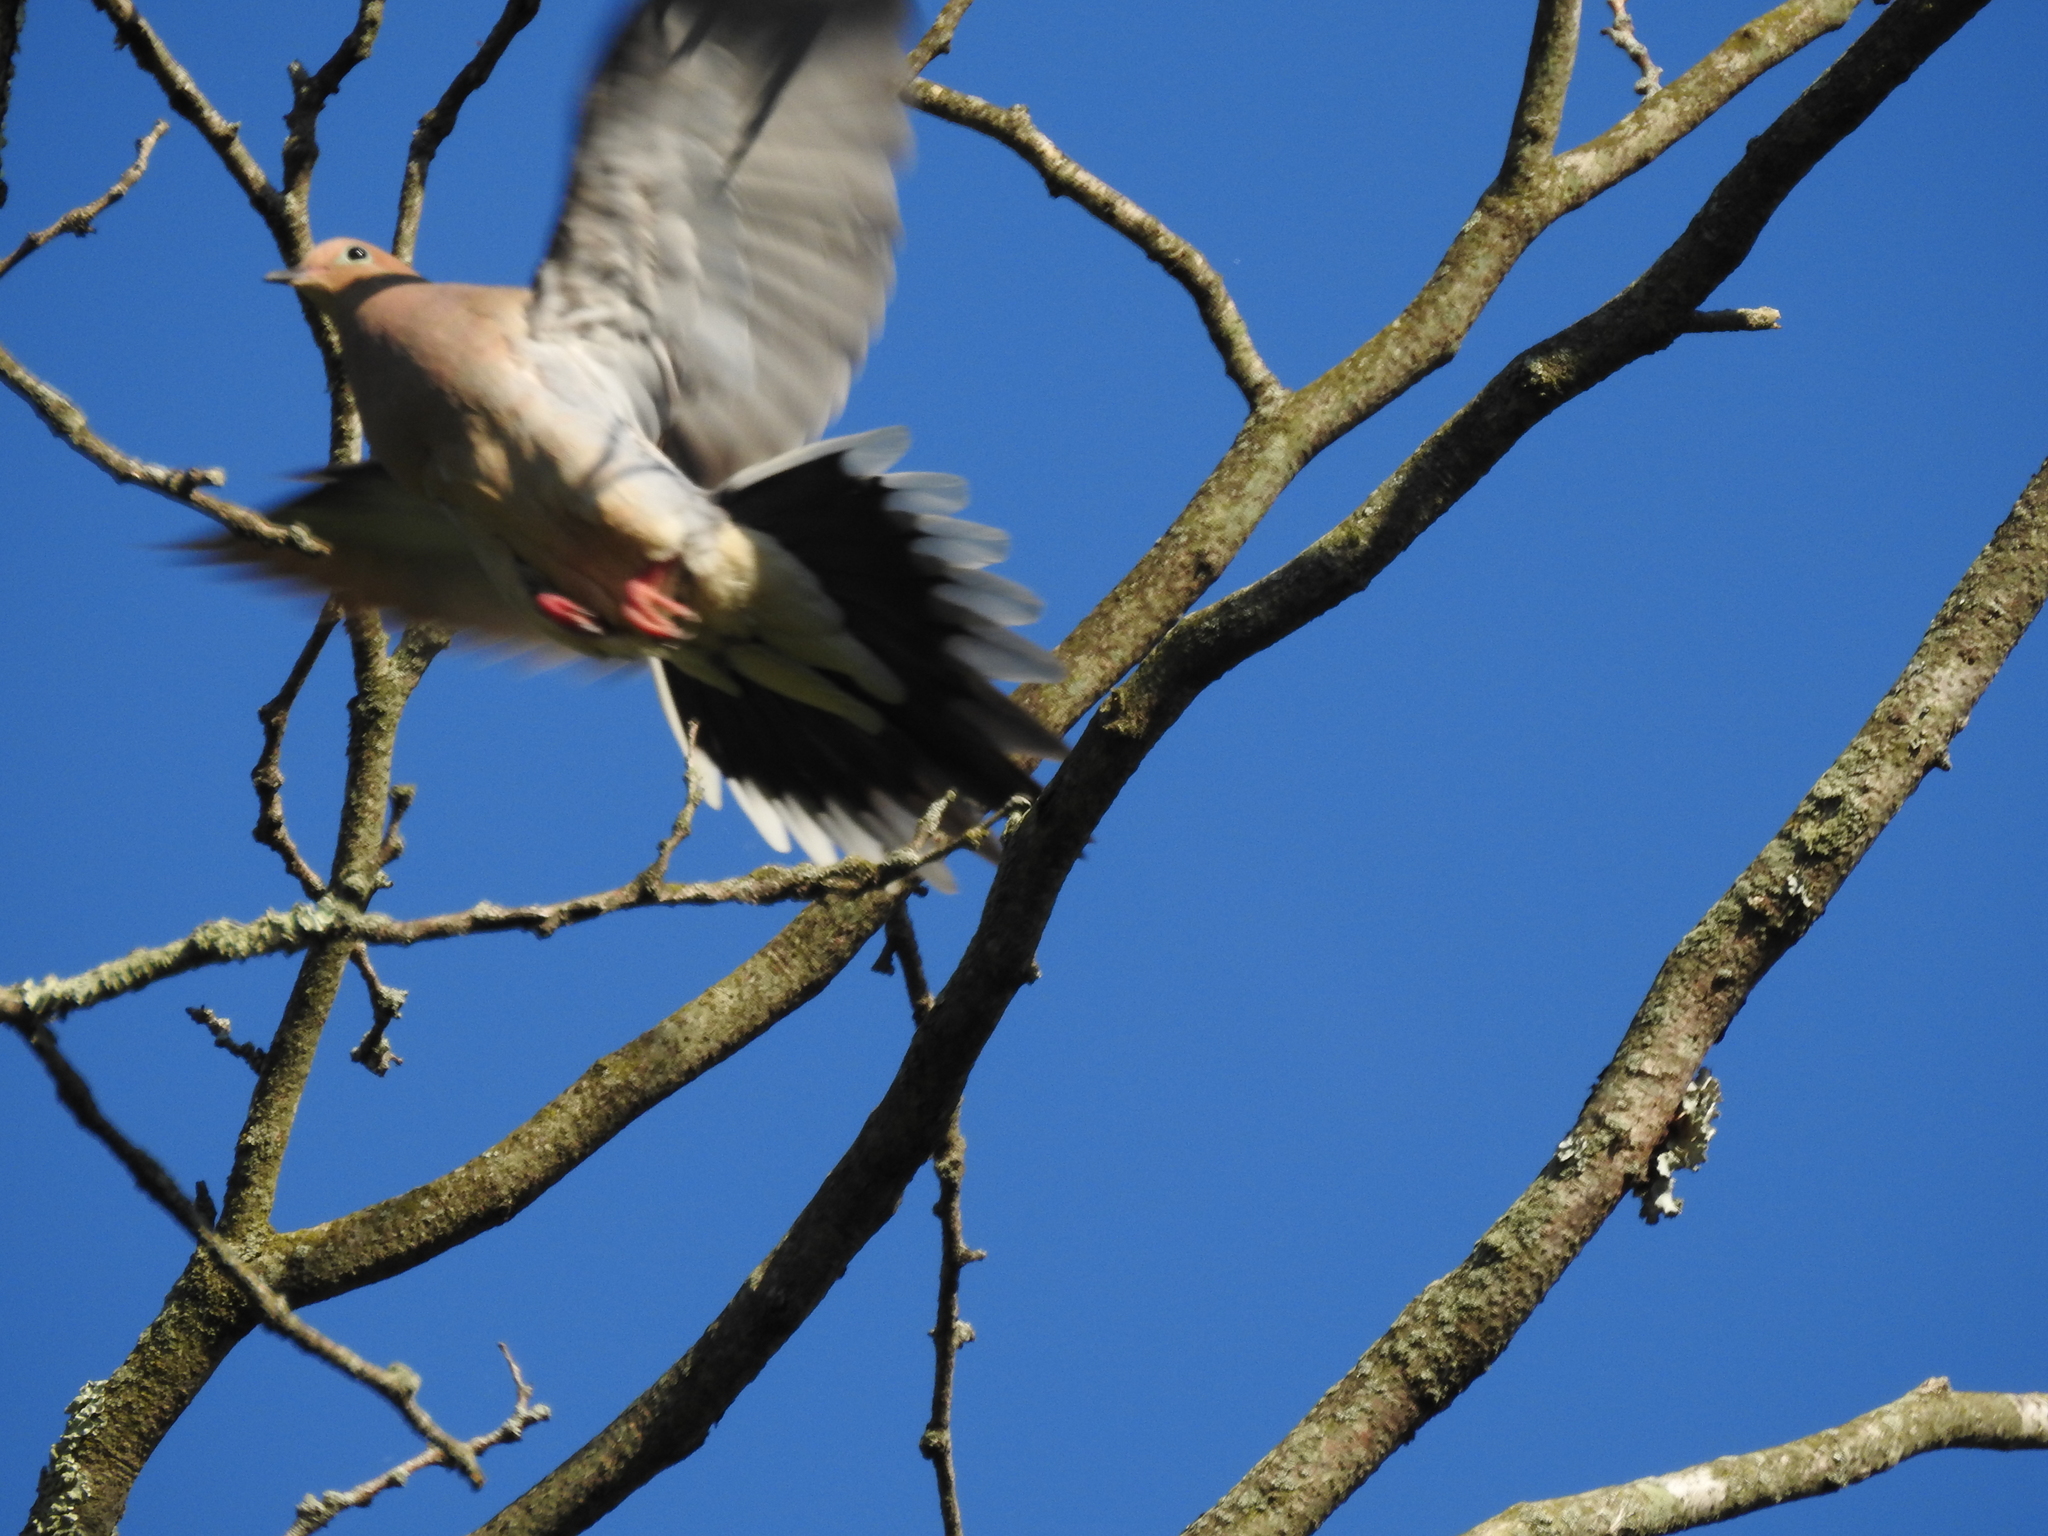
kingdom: Animalia
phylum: Chordata
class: Aves
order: Columbiformes
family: Columbidae
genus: Zenaida
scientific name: Zenaida macroura
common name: Mourning dove
